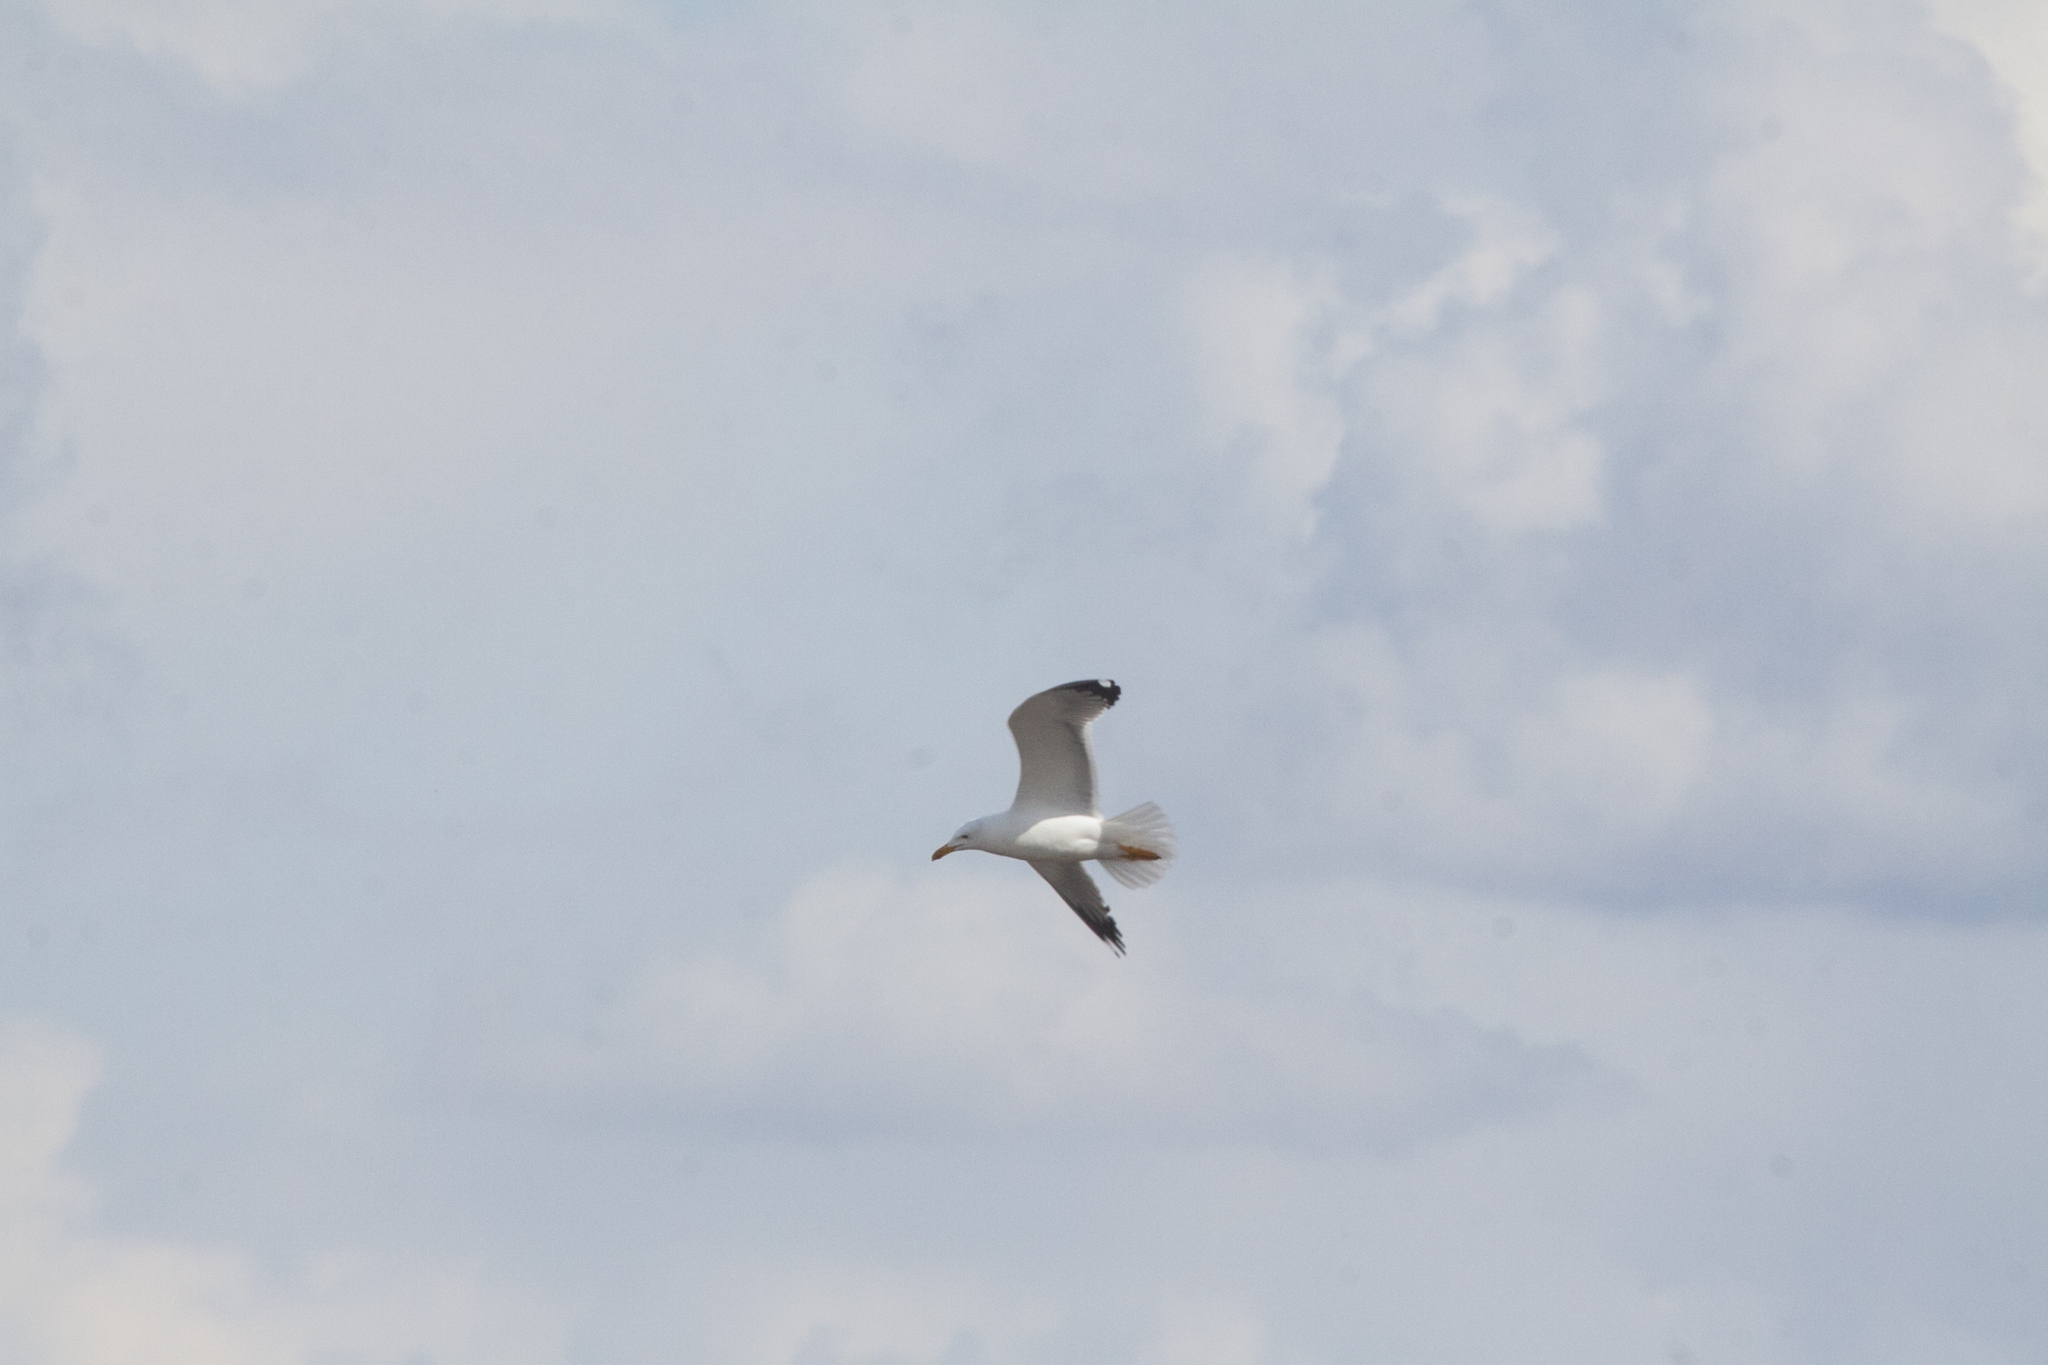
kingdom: Animalia
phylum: Chordata
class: Aves
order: Charadriiformes
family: Laridae
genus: Larus
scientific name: Larus fuscus
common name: Lesser black-backed gull
